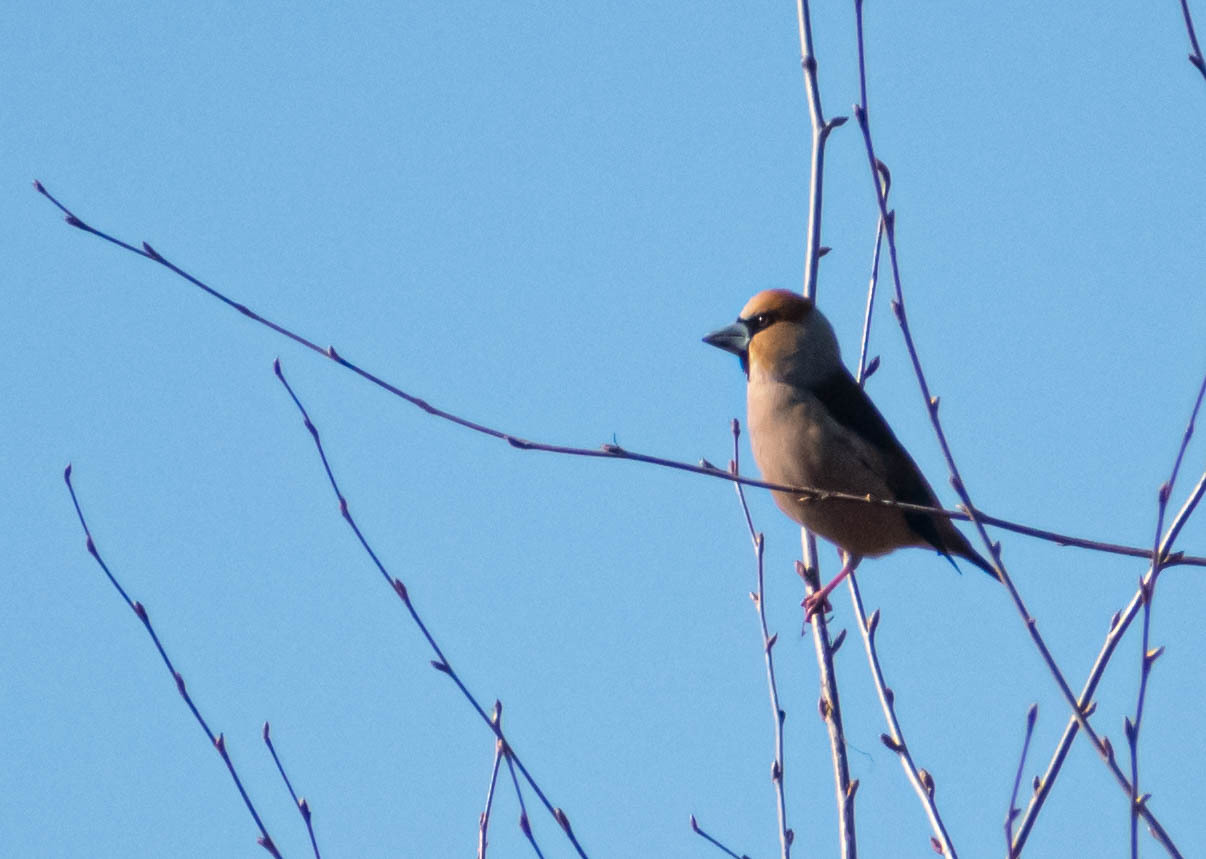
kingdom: Animalia
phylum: Chordata
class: Aves
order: Passeriformes
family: Fringillidae
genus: Coccothraustes
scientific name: Coccothraustes coccothraustes
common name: Hawfinch
